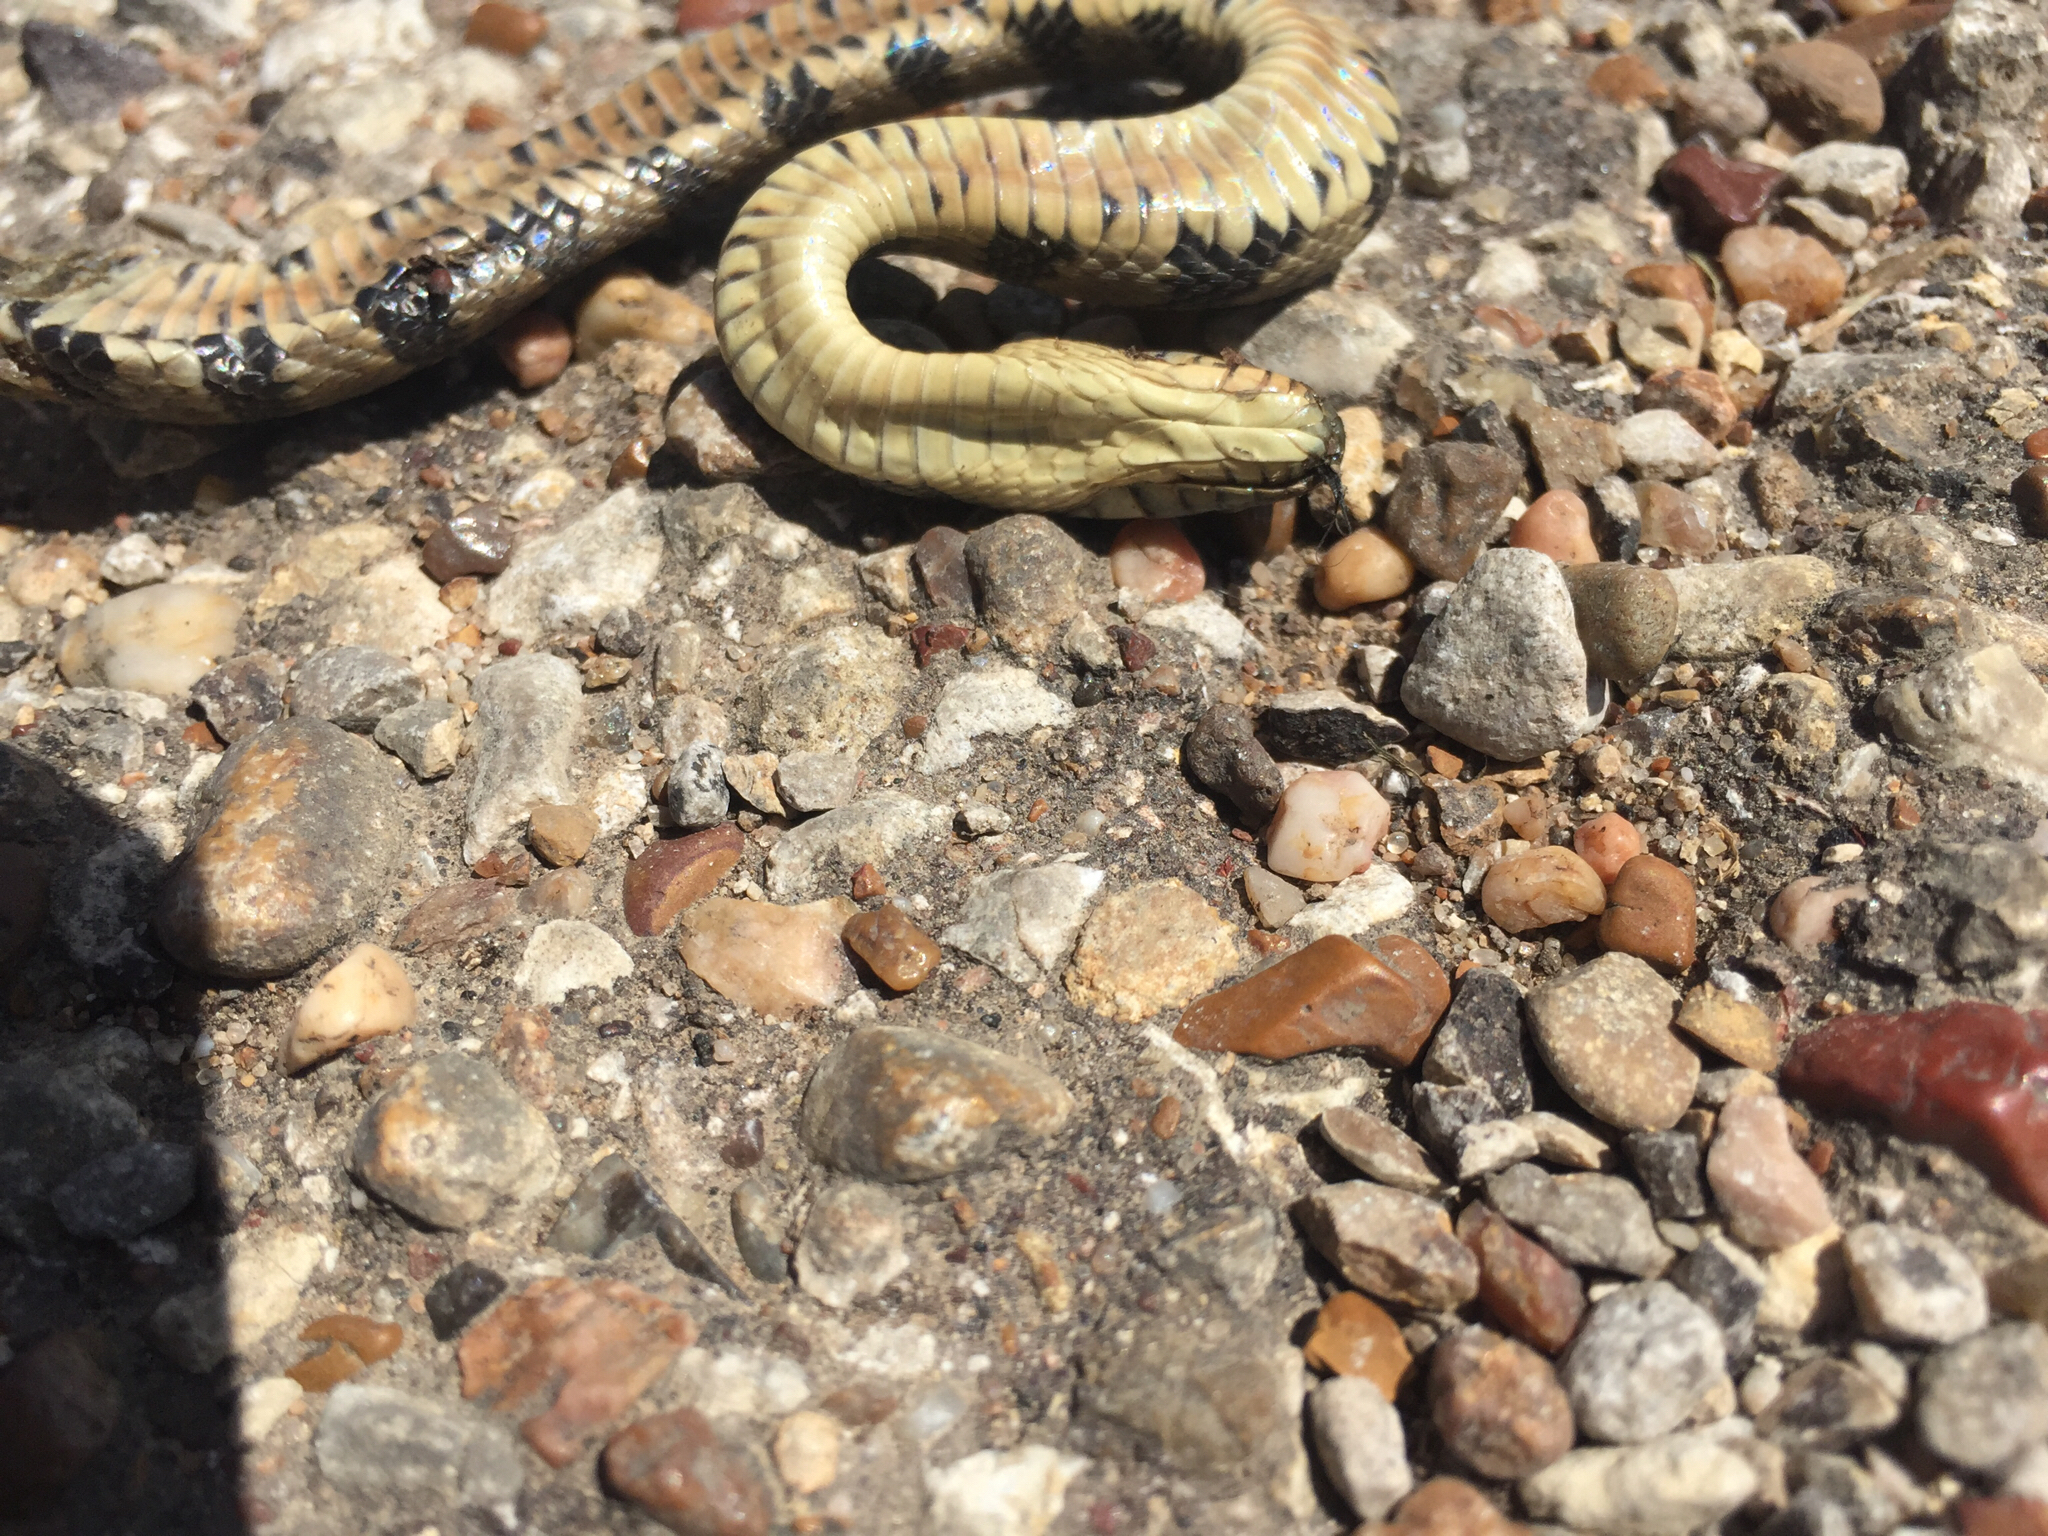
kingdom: Animalia
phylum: Chordata
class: Squamata
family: Colubridae
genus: Nerodia
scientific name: Nerodia rhombifer
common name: Diamondback water snake
